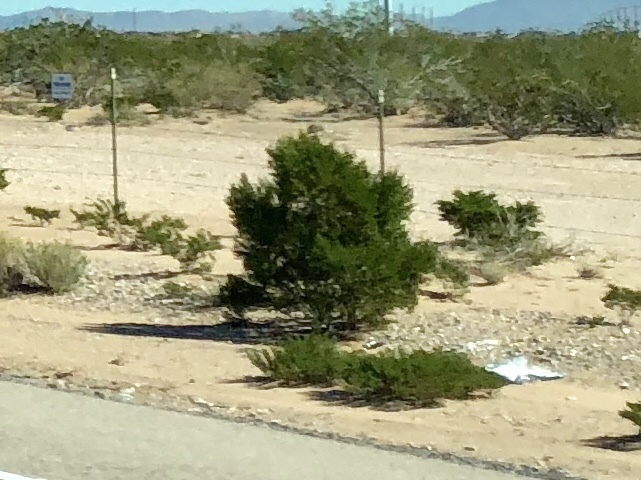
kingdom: Plantae
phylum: Tracheophyta
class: Magnoliopsida
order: Zygophyllales
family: Zygophyllaceae
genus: Larrea
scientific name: Larrea tridentata
